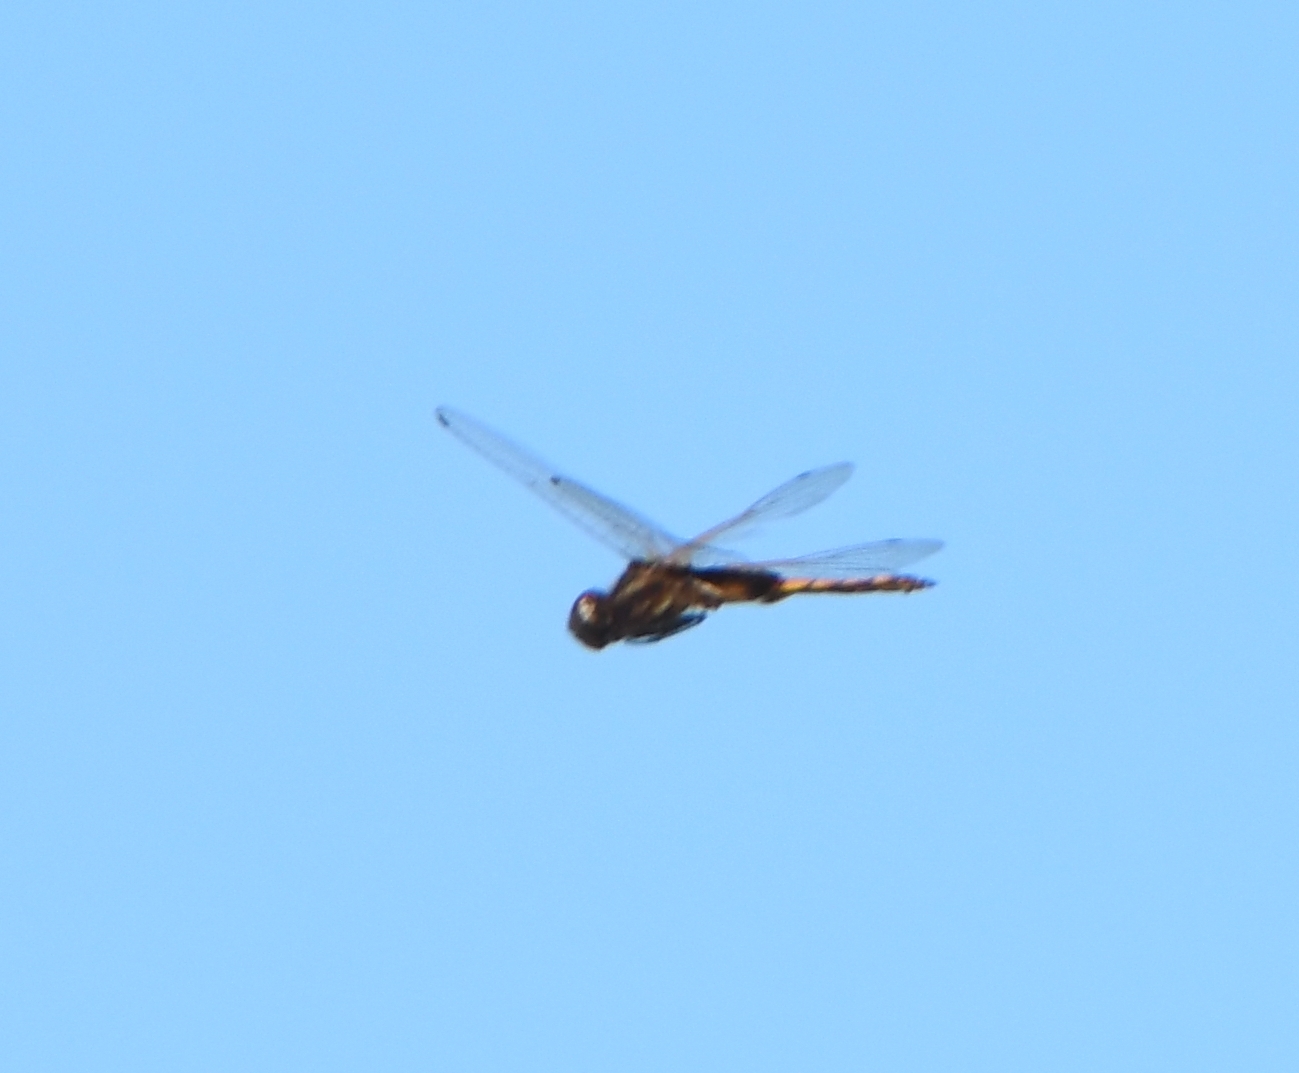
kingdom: Animalia
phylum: Arthropoda
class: Insecta
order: Odonata
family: Libellulidae
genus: Miathyria
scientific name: Miathyria marcella
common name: Hyacinth glider
